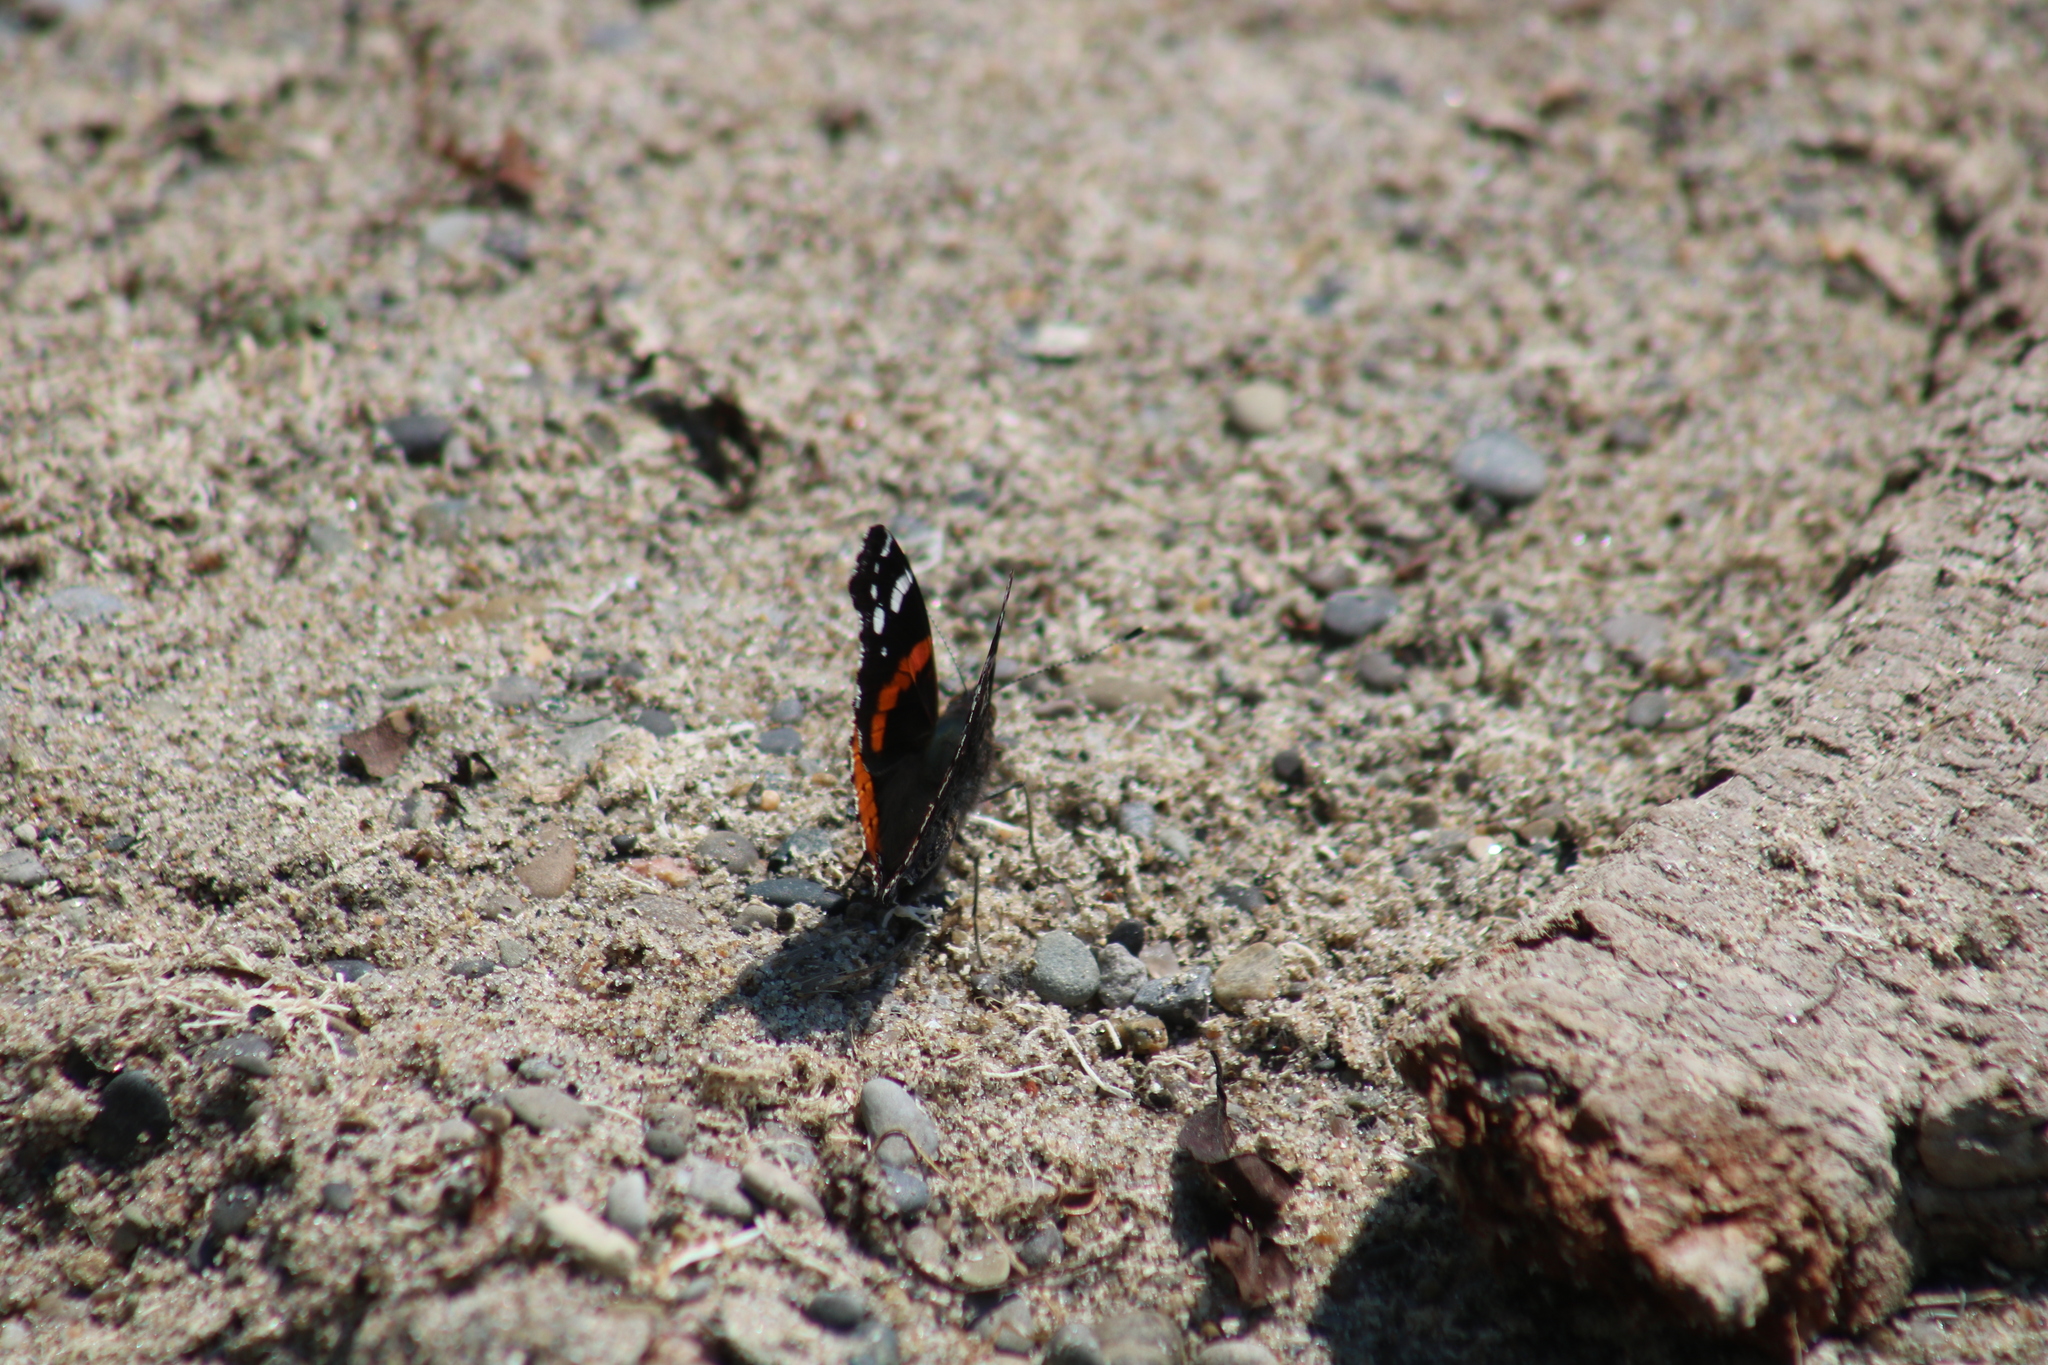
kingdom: Animalia
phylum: Arthropoda
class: Insecta
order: Lepidoptera
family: Nymphalidae
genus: Vanessa
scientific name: Vanessa atalanta
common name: Red admiral
